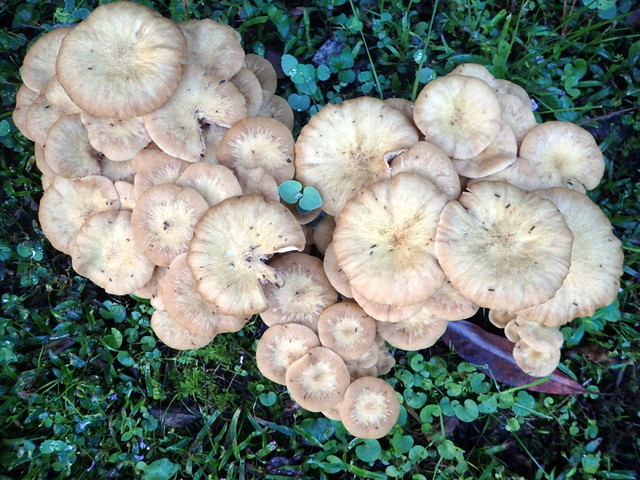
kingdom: Fungi
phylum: Basidiomycota
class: Agaricomycetes
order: Agaricales
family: Physalacriaceae
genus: Desarmillaria
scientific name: Desarmillaria caespitosa
